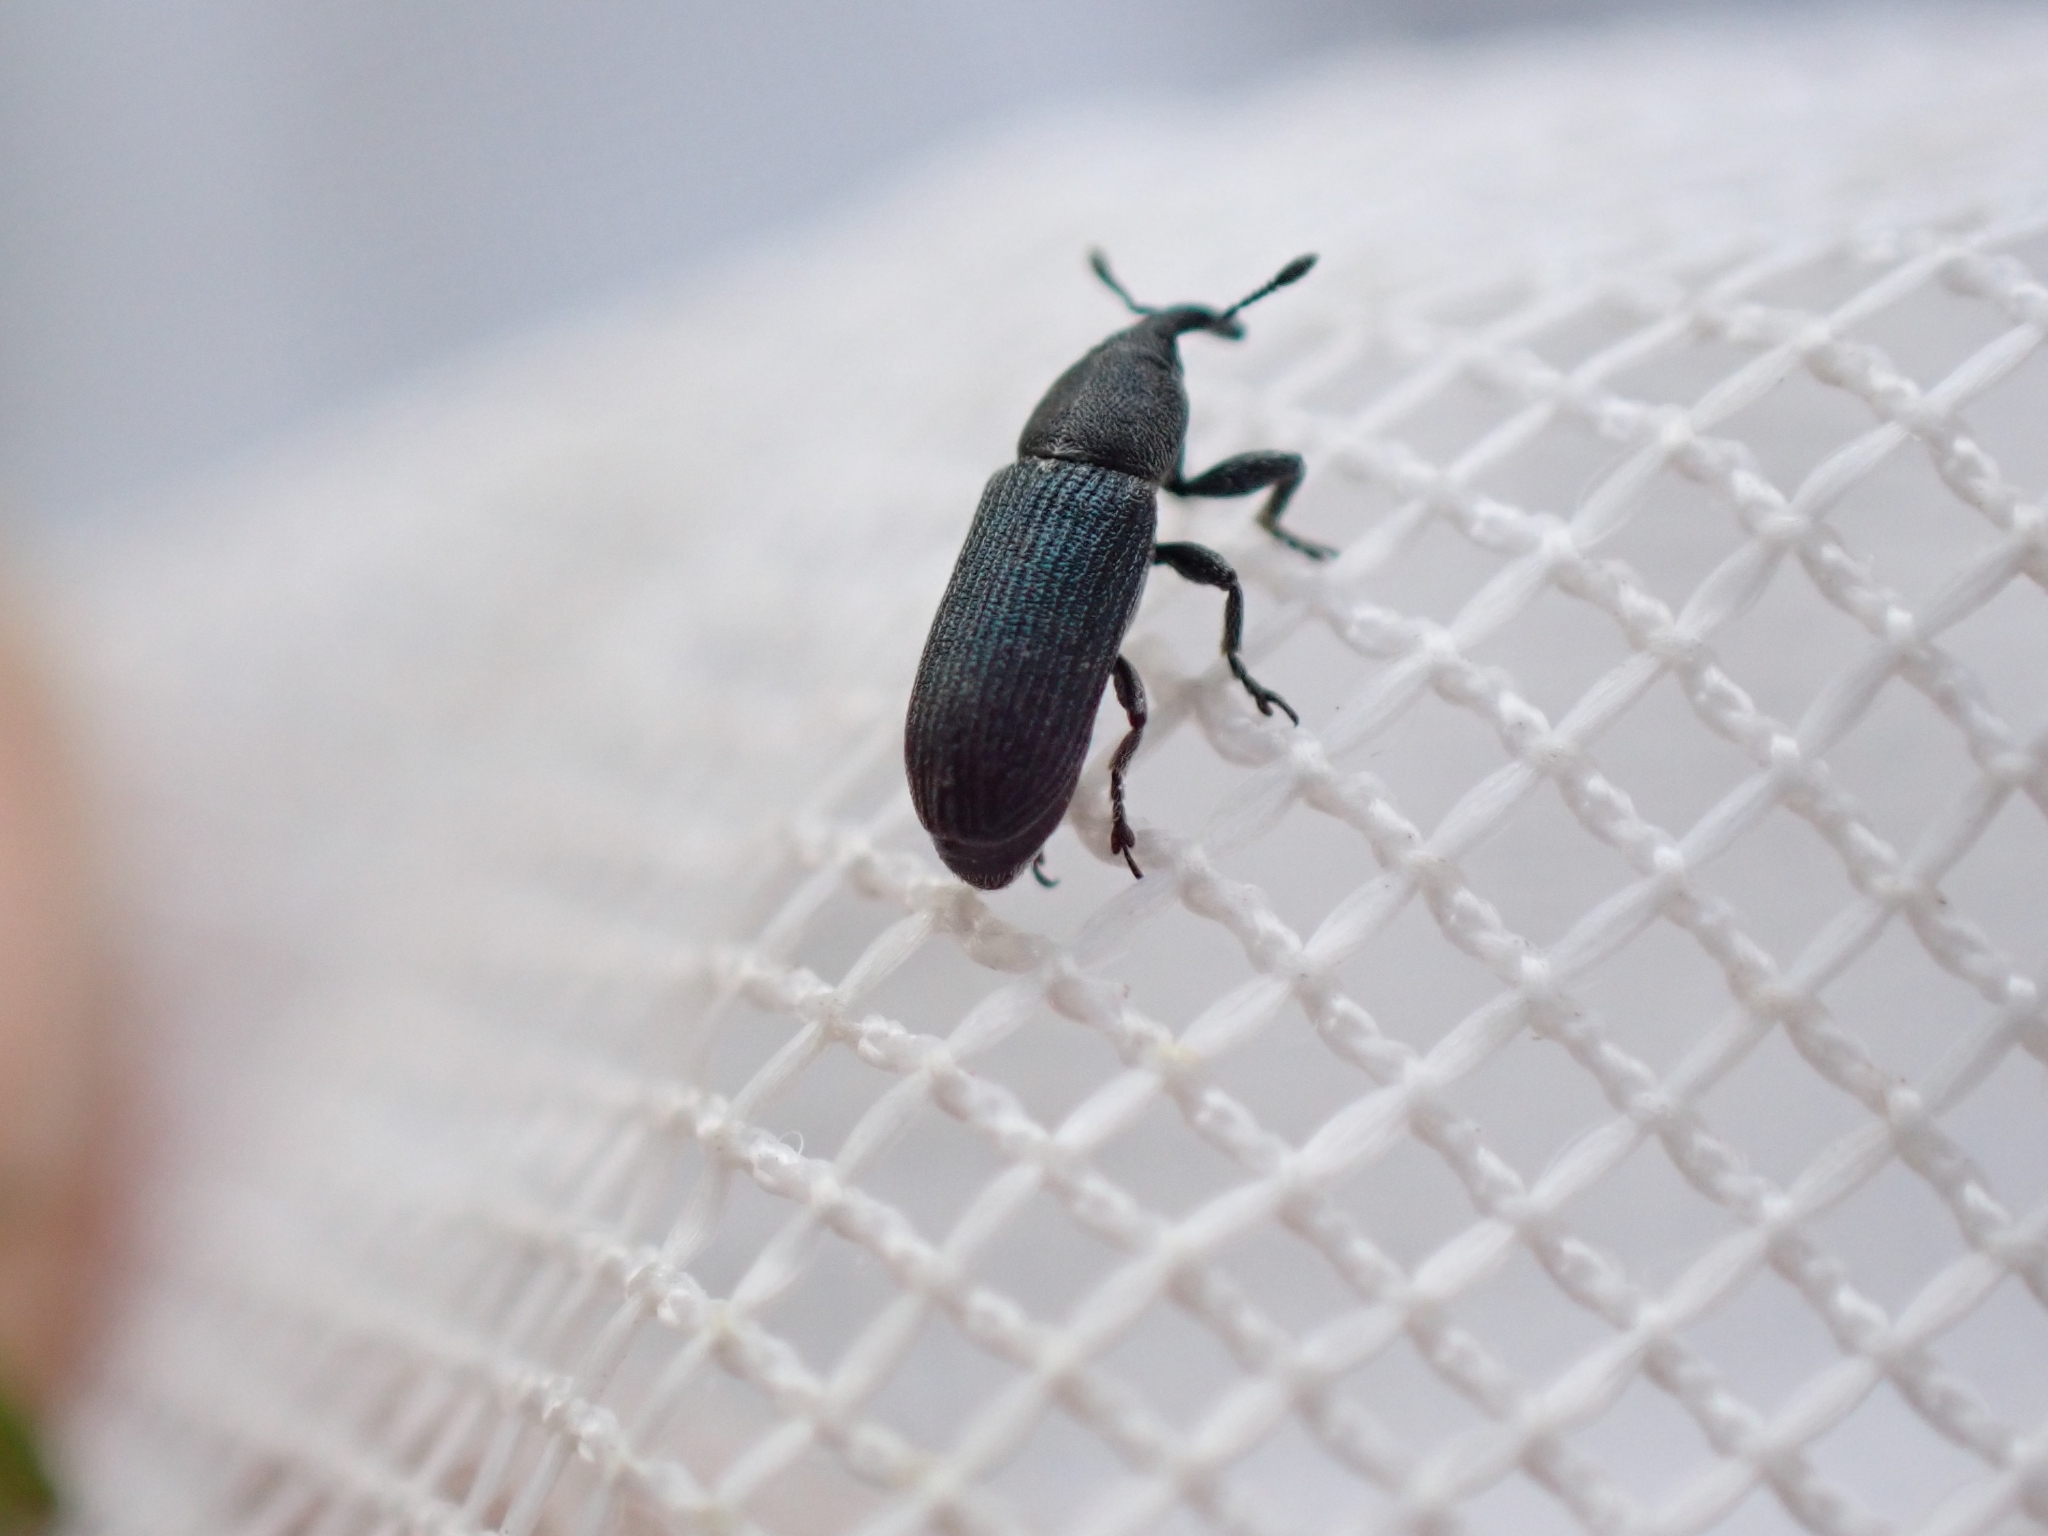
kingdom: Animalia
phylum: Arthropoda
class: Insecta
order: Coleoptera
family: Curculionidae
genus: Mecinus
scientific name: Mecinus janthiniformis
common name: Dalmatian toadflax stem weevil
